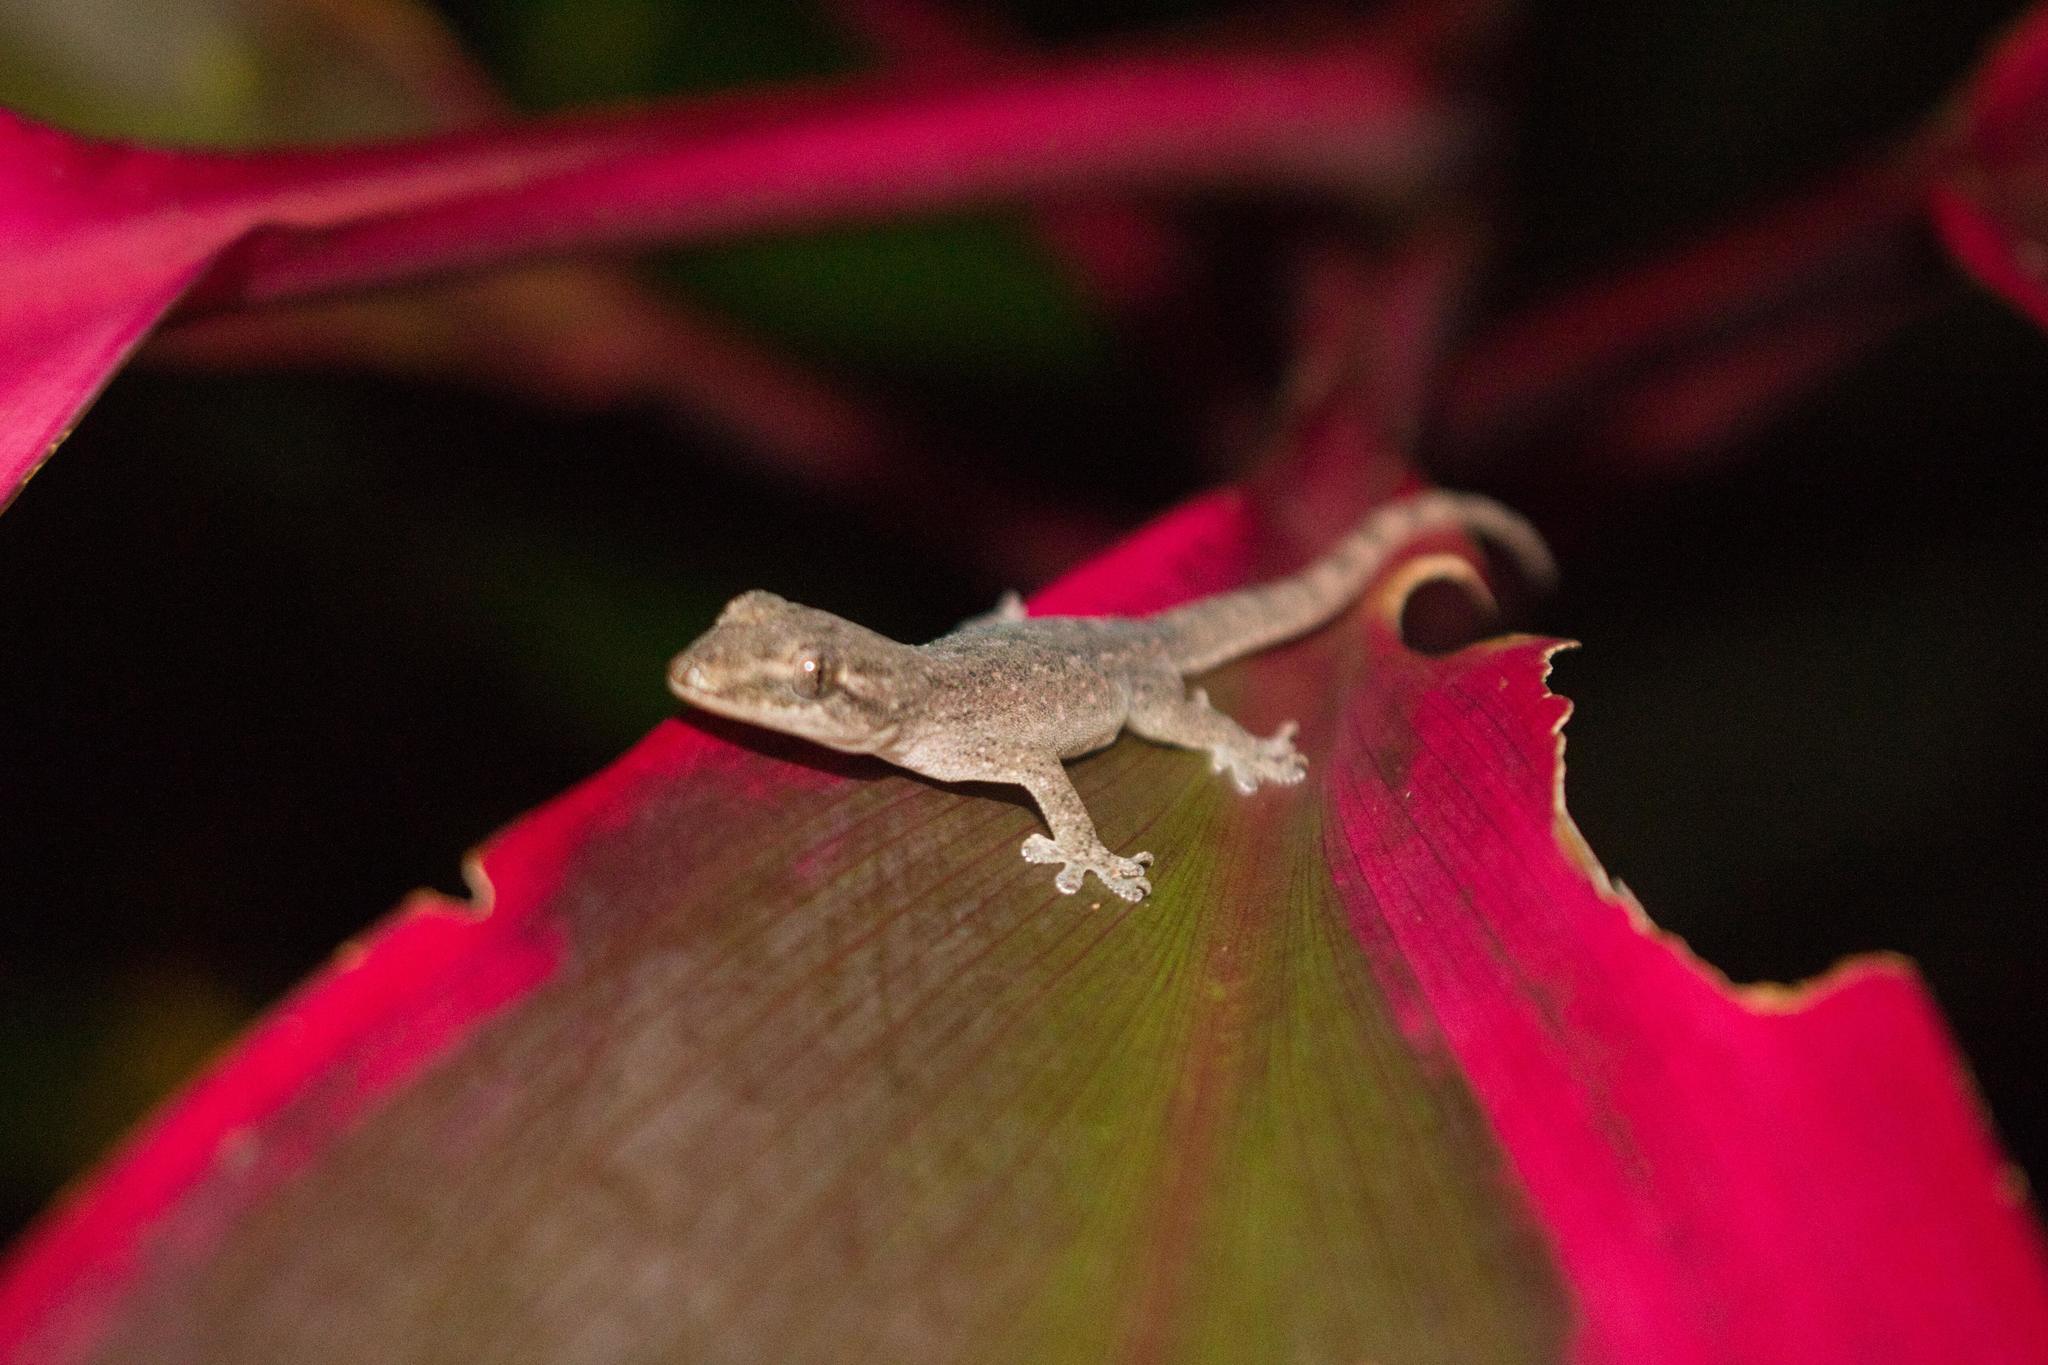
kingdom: Animalia
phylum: Chordata
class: Squamata
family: Gekkonidae
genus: Hemidactylus
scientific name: Hemidactylus frenatus
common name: Common house gecko
